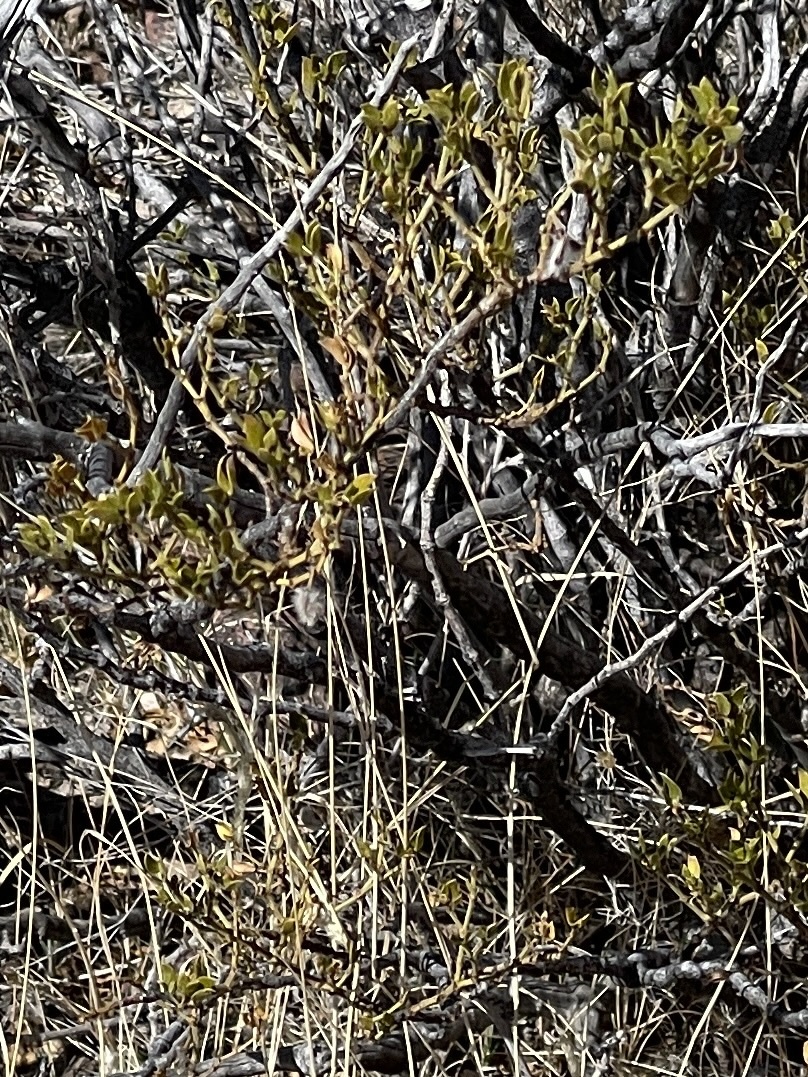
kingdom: Plantae
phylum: Tracheophyta
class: Magnoliopsida
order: Zygophyllales
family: Zygophyllaceae
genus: Larrea
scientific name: Larrea tridentata
